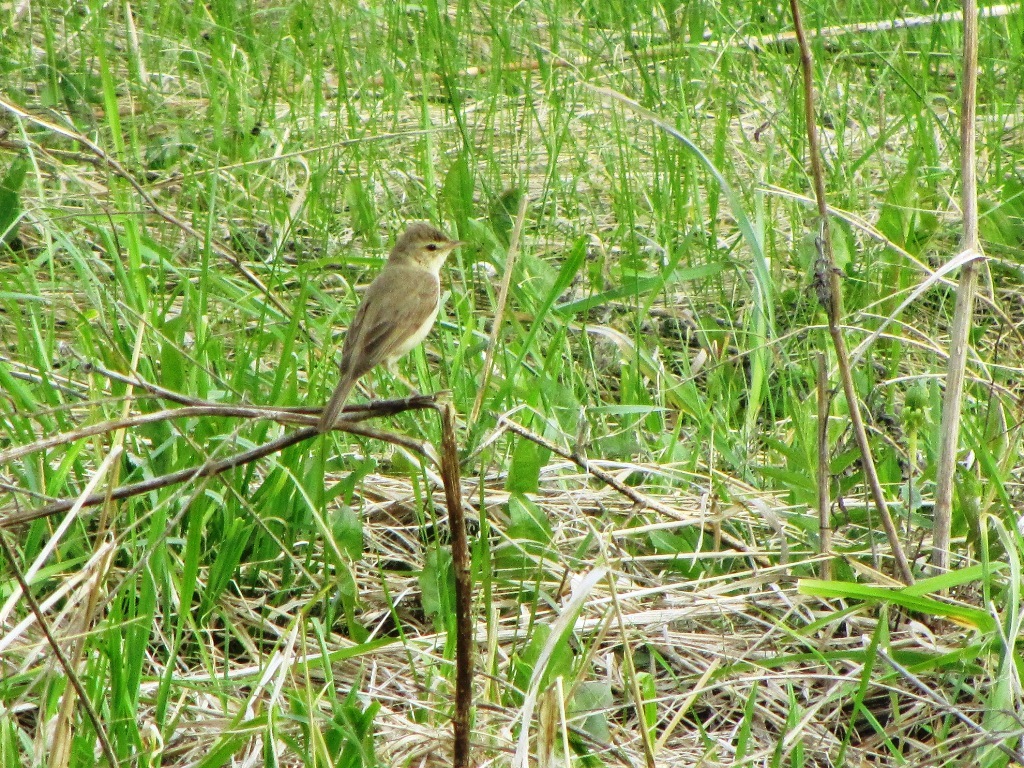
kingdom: Animalia
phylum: Chordata
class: Aves
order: Passeriformes
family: Acrocephalidae
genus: Iduna
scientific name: Iduna caligata
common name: Booted warbler
